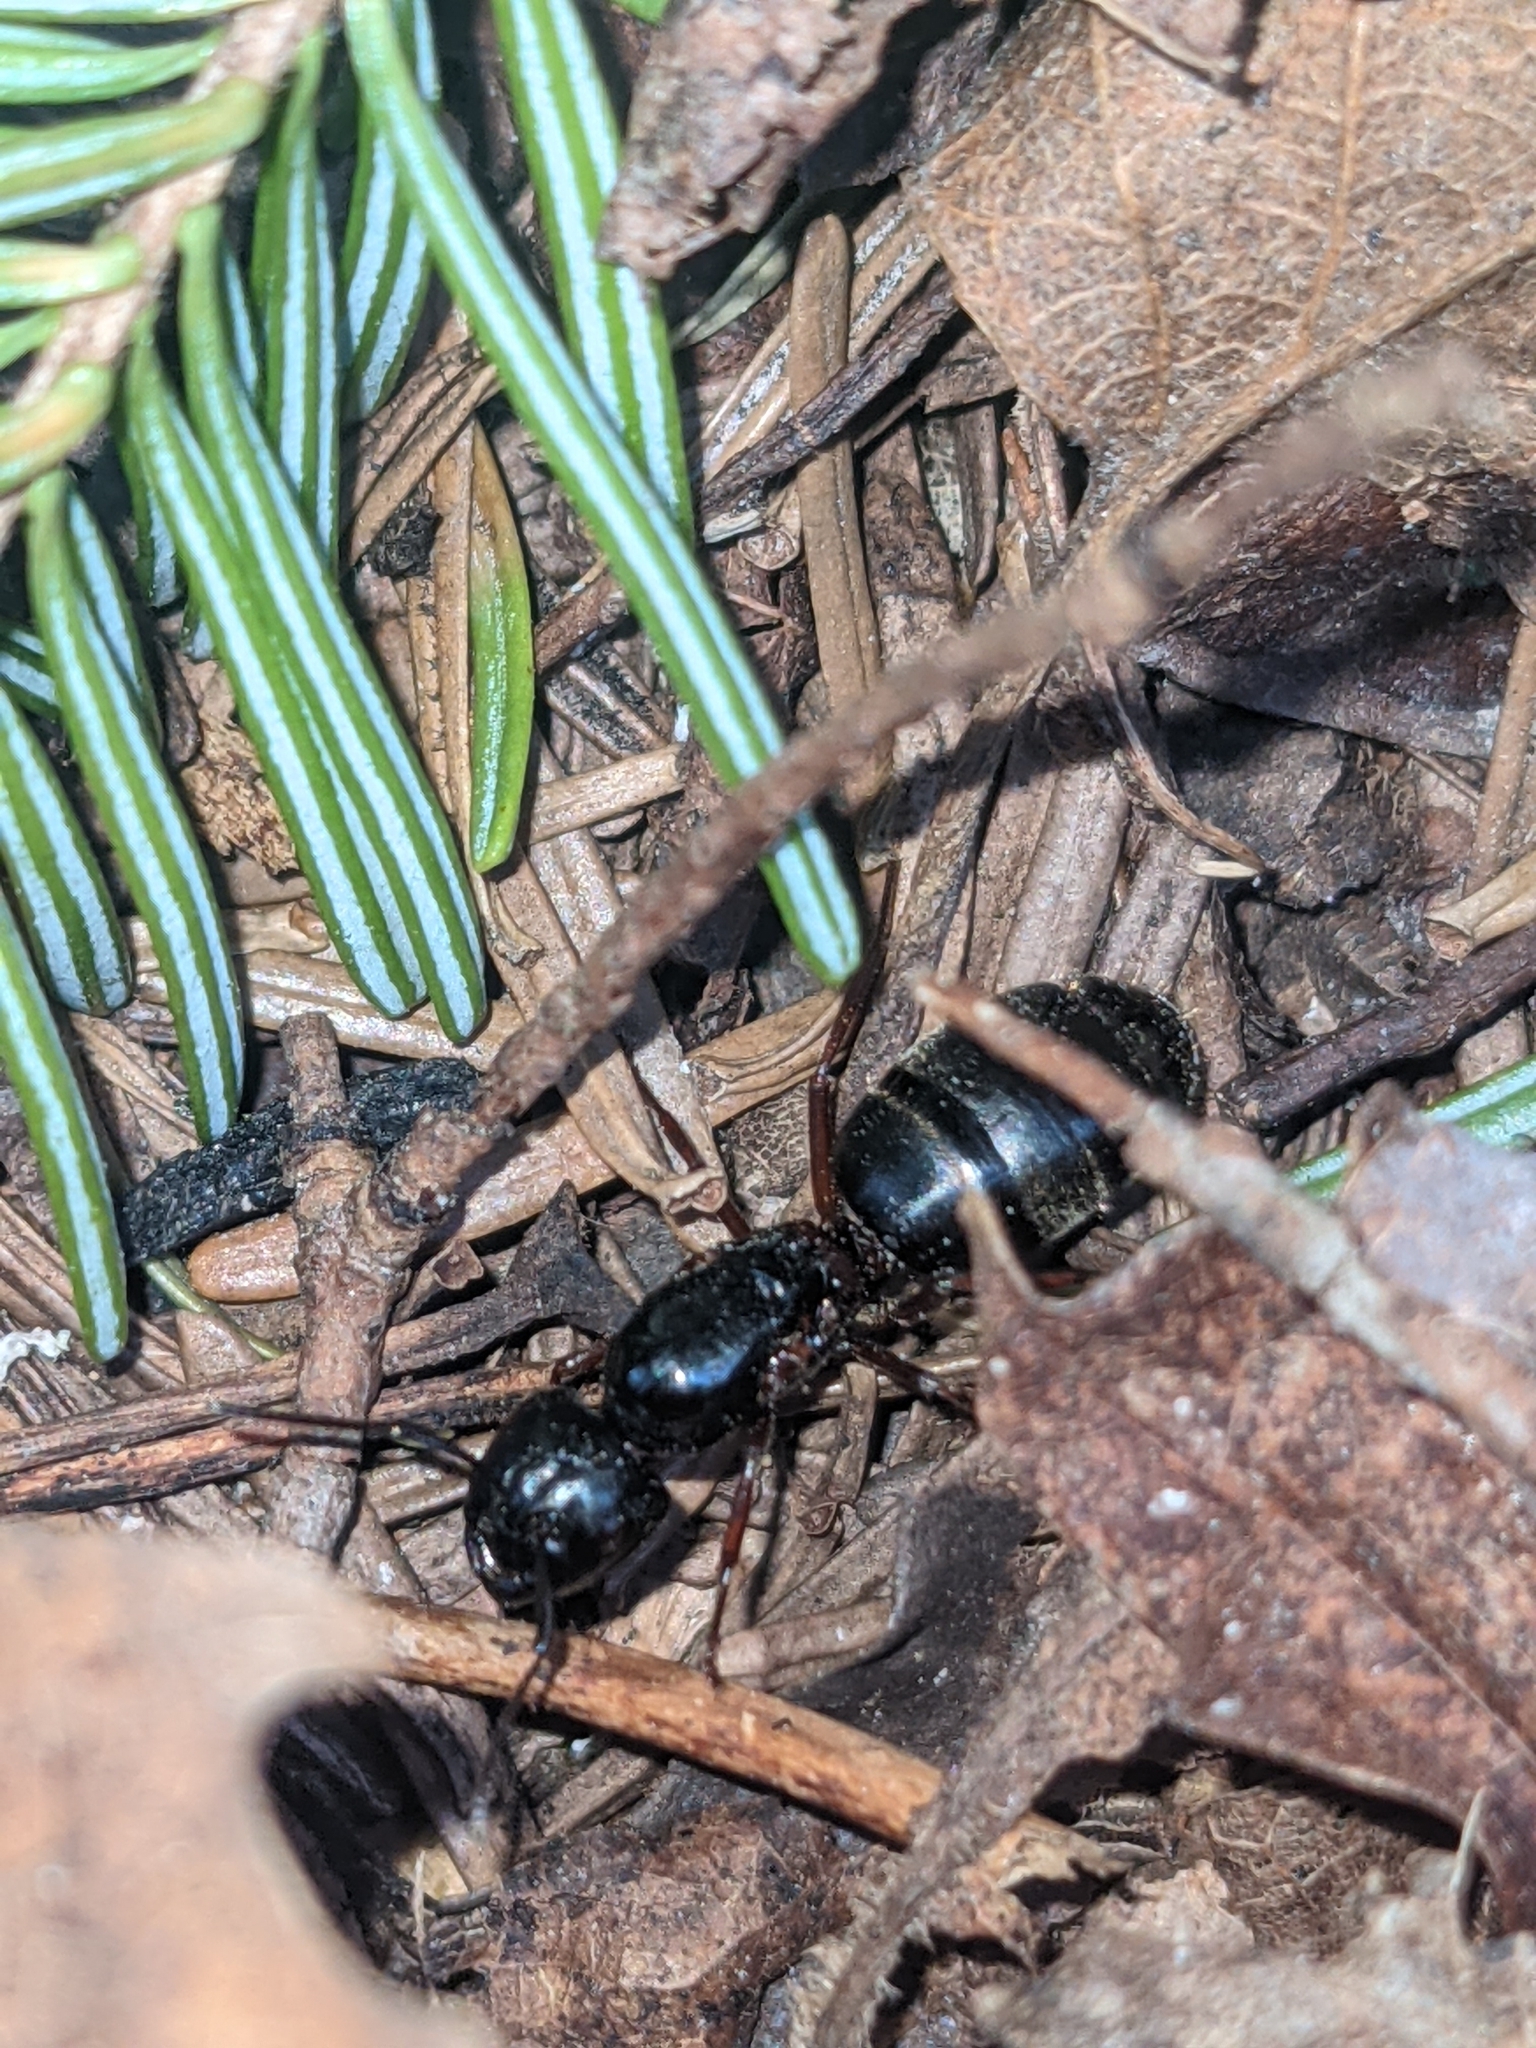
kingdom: Animalia
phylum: Arthropoda
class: Insecta
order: Hymenoptera
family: Formicidae
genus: Camponotus
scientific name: Camponotus herculeanus
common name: Hercules ant
